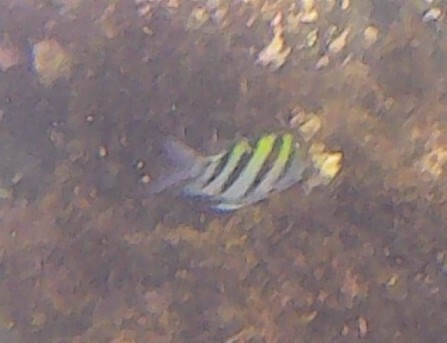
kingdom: Animalia
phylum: Chordata
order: Perciformes
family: Pomacentridae
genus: Abudefduf
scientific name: Abudefduf vaigiensis
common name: Indo-pacific sergeant
